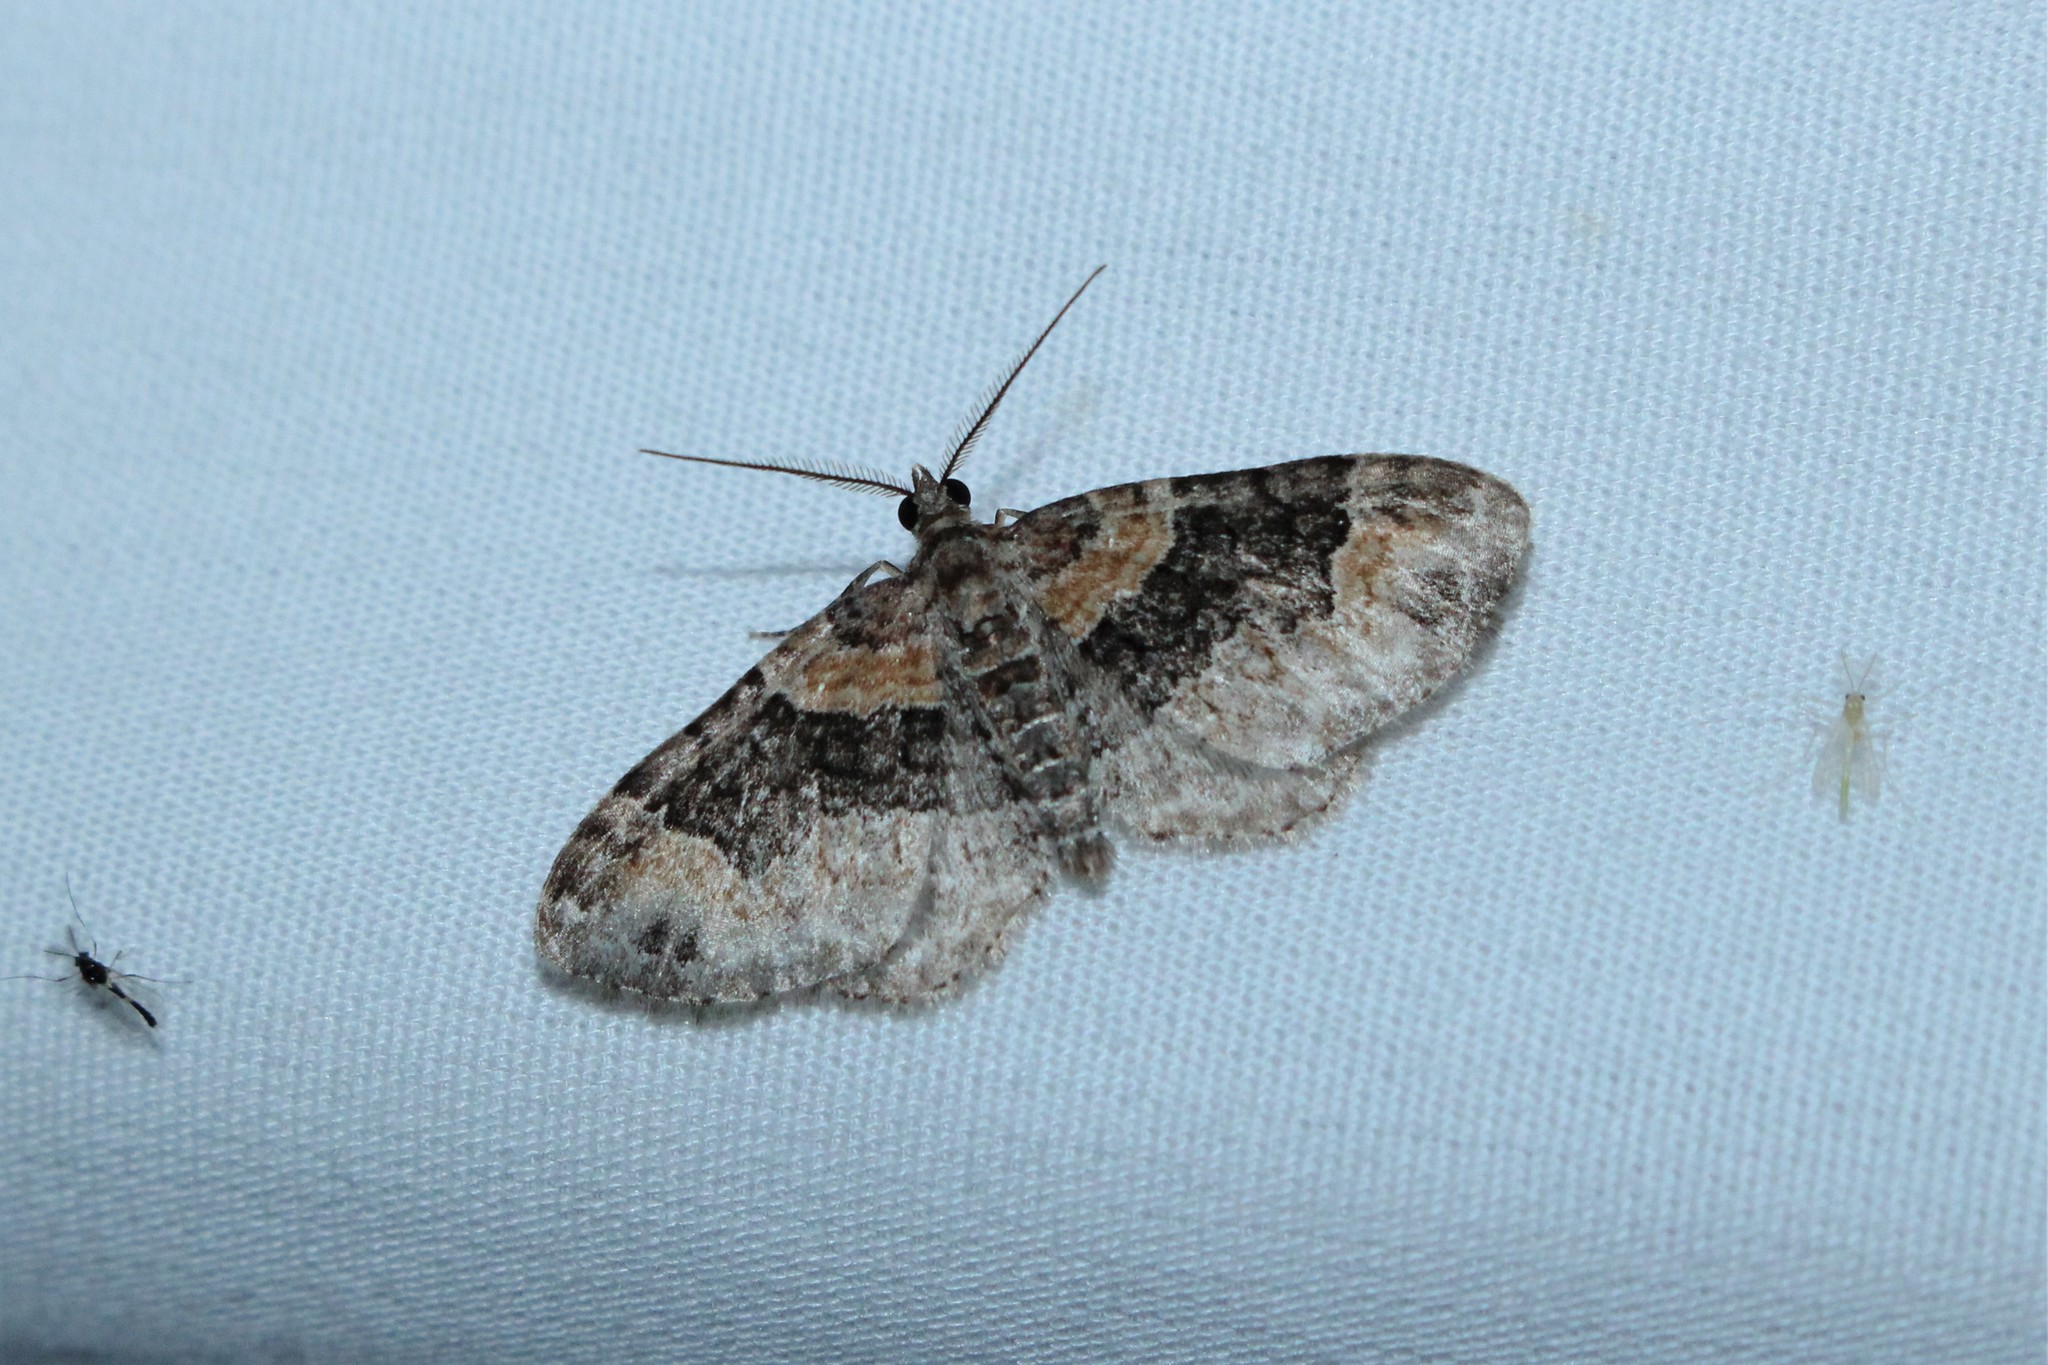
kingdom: Animalia
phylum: Arthropoda
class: Insecta
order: Lepidoptera
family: Geometridae
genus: Xanthorhoe
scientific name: Xanthorhoe ferrugata
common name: Dark-barred twin-spot carpet
